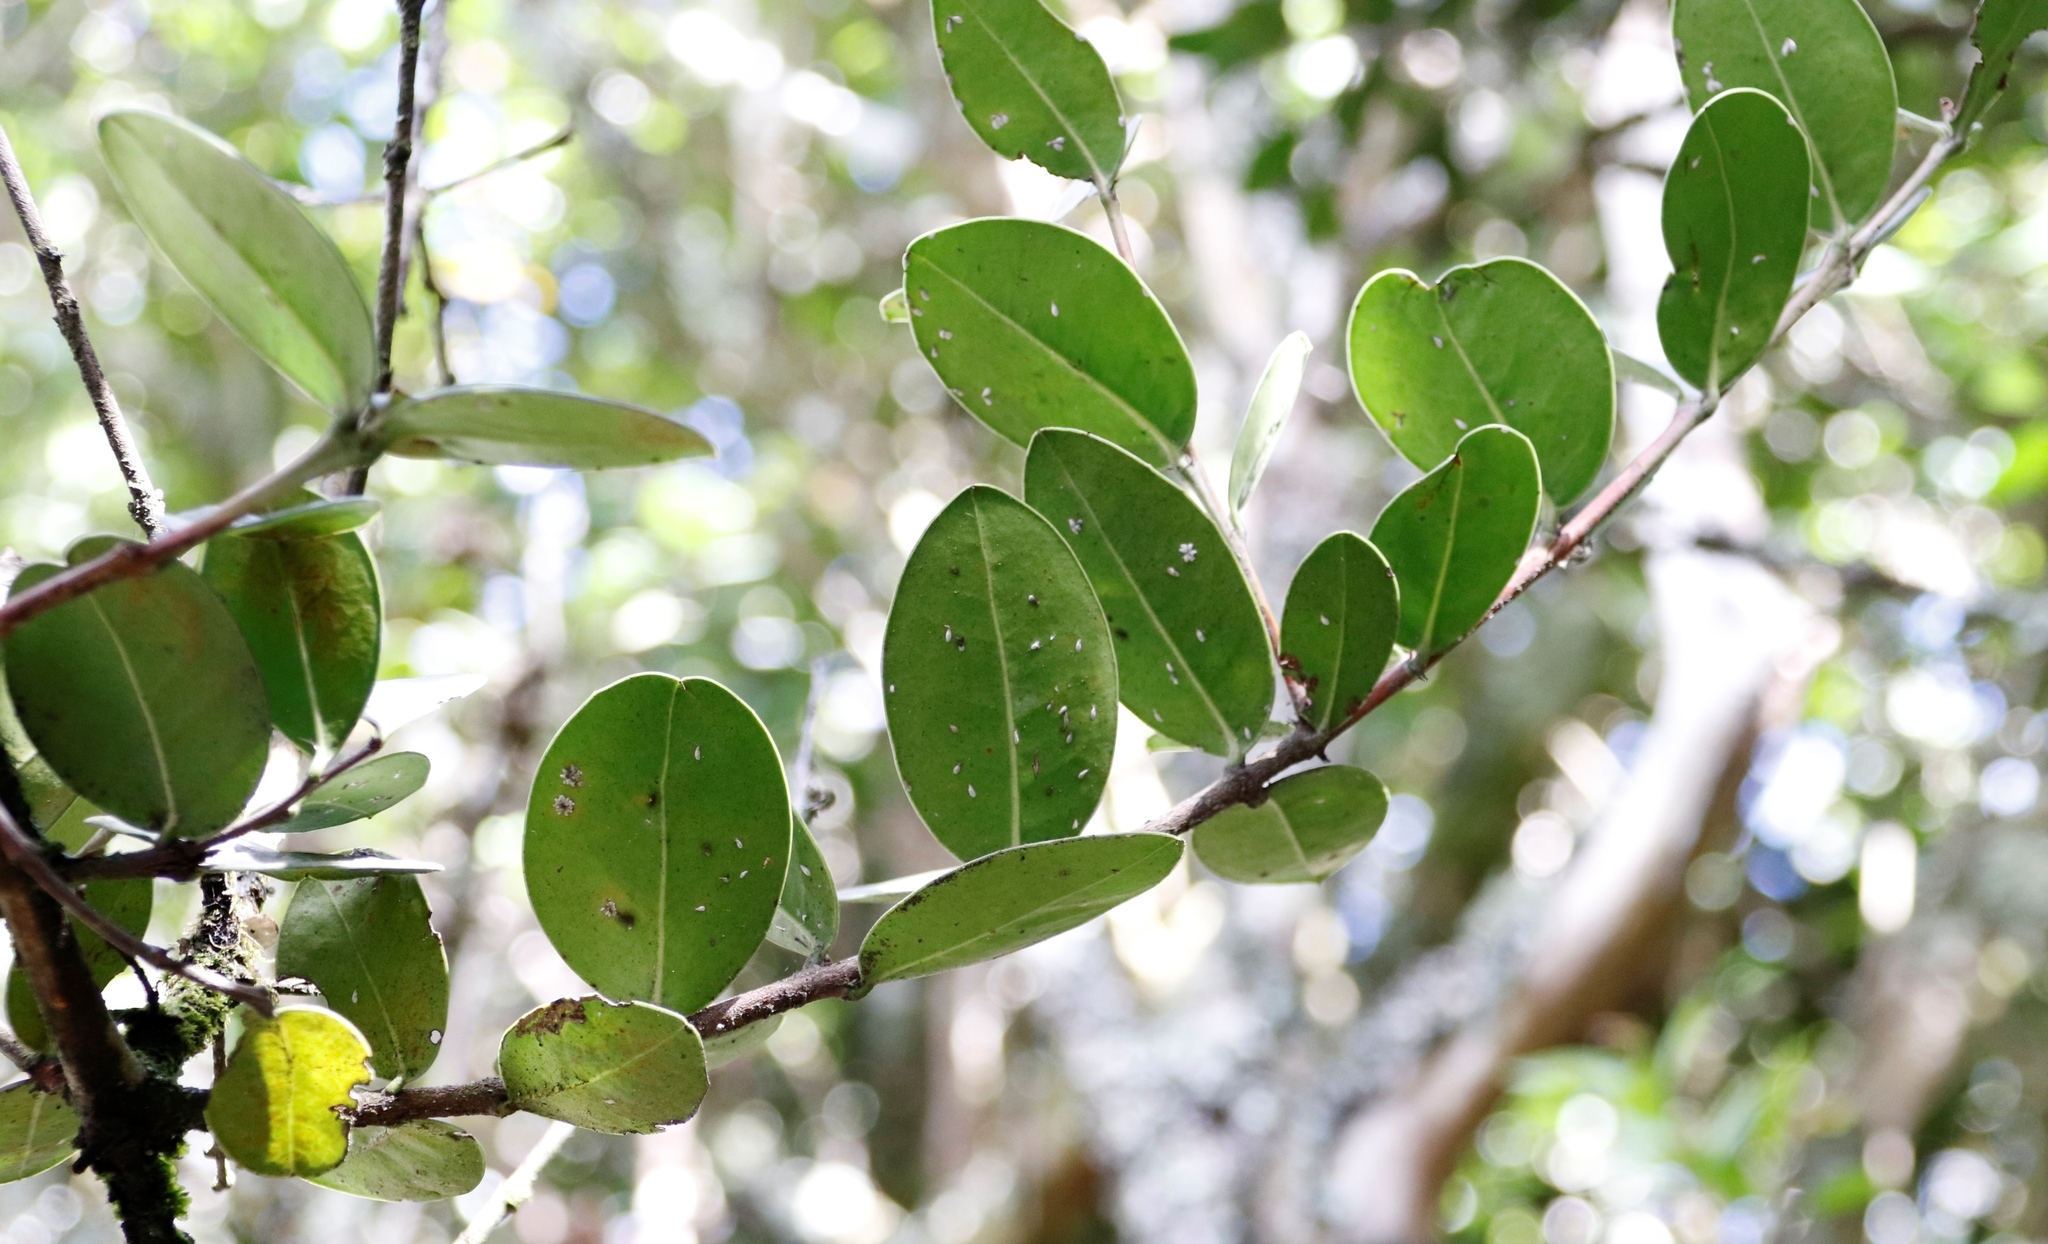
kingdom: Plantae
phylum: Tracheophyta
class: Magnoliopsida
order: Lamiales
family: Oleaceae
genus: Noronhia
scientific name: Noronhia foveolata
